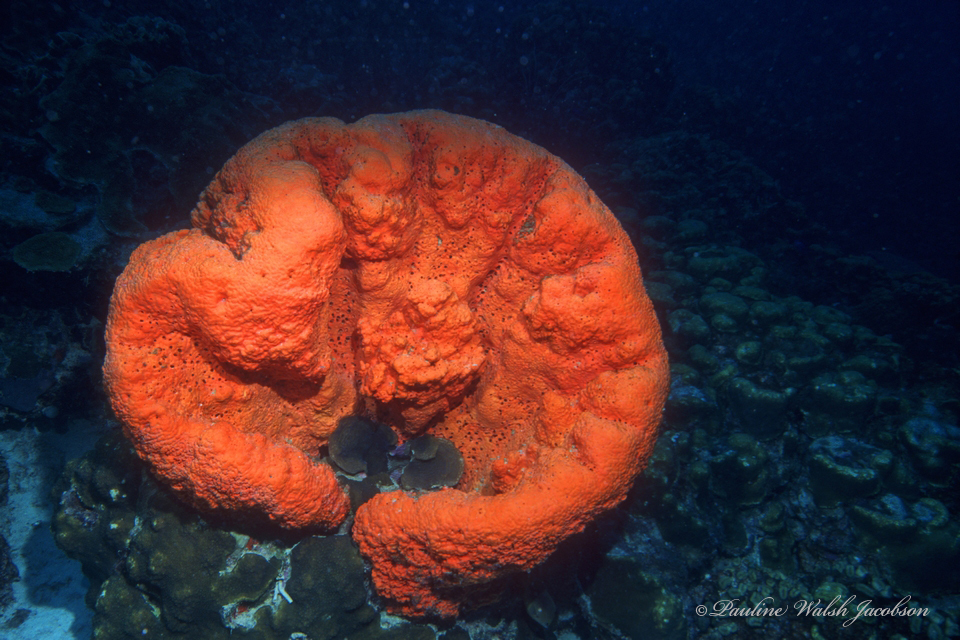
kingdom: Animalia
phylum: Porifera
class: Demospongiae
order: Agelasida
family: Agelasidae
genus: Agelas
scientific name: Agelas clathrodes
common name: Orange elephant ear sponge
